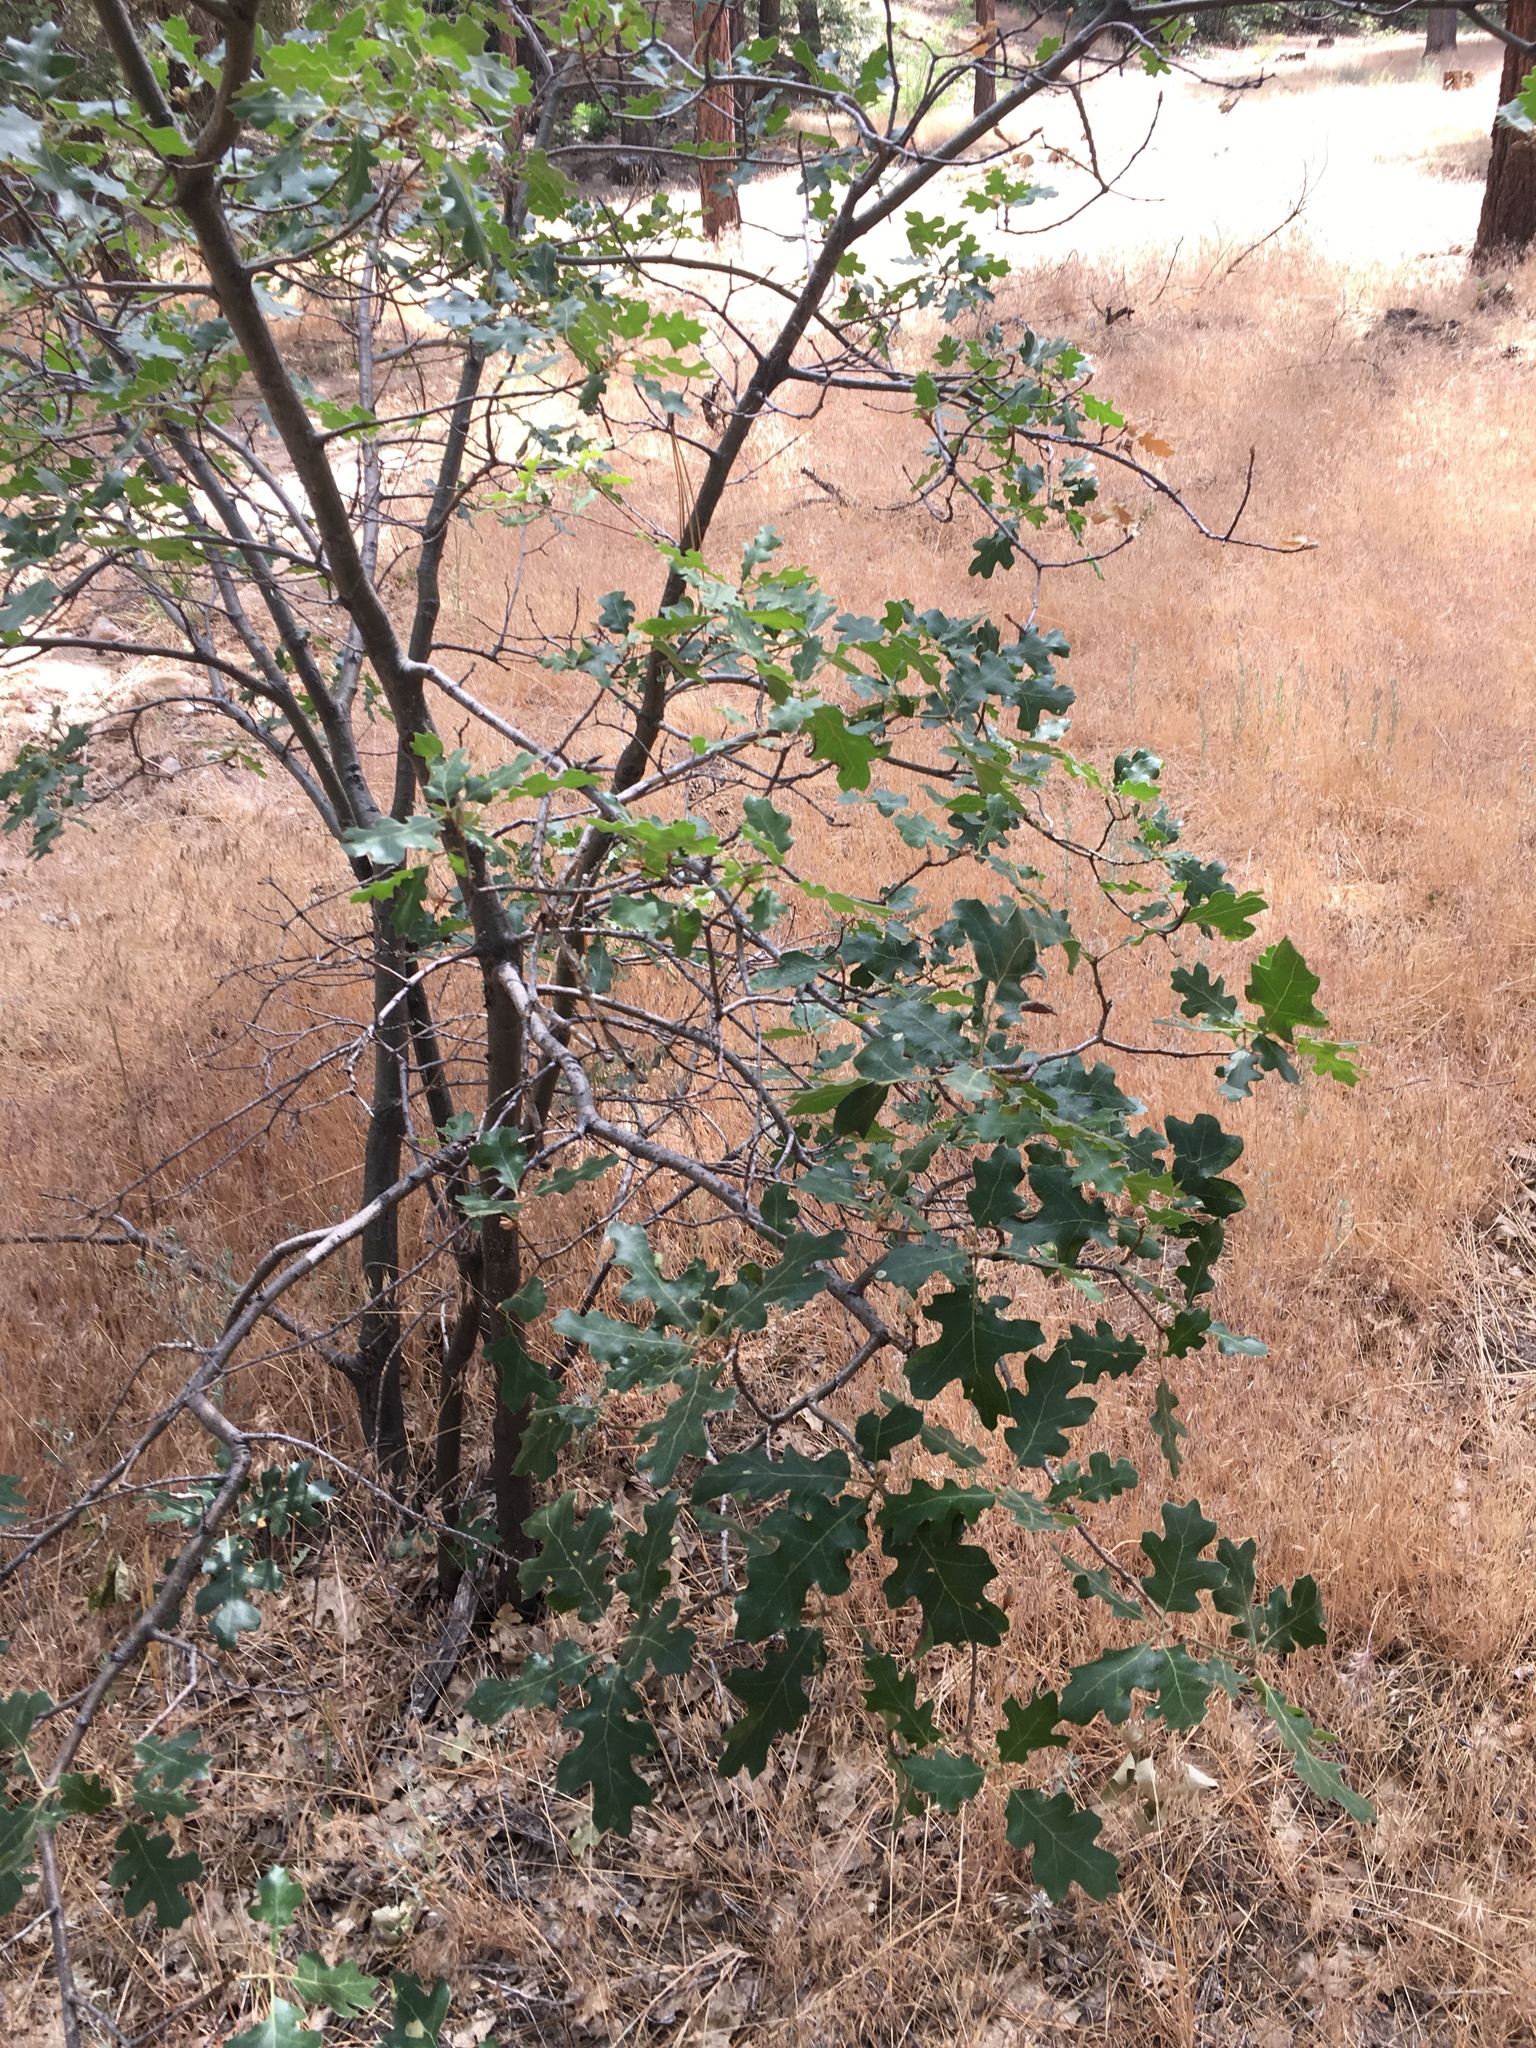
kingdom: Plantae
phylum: Tracheophyta
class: Magnoliopsida
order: Fagales
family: Fagaceae
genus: Quercus
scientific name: Quercus kelloggii
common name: California black oak
